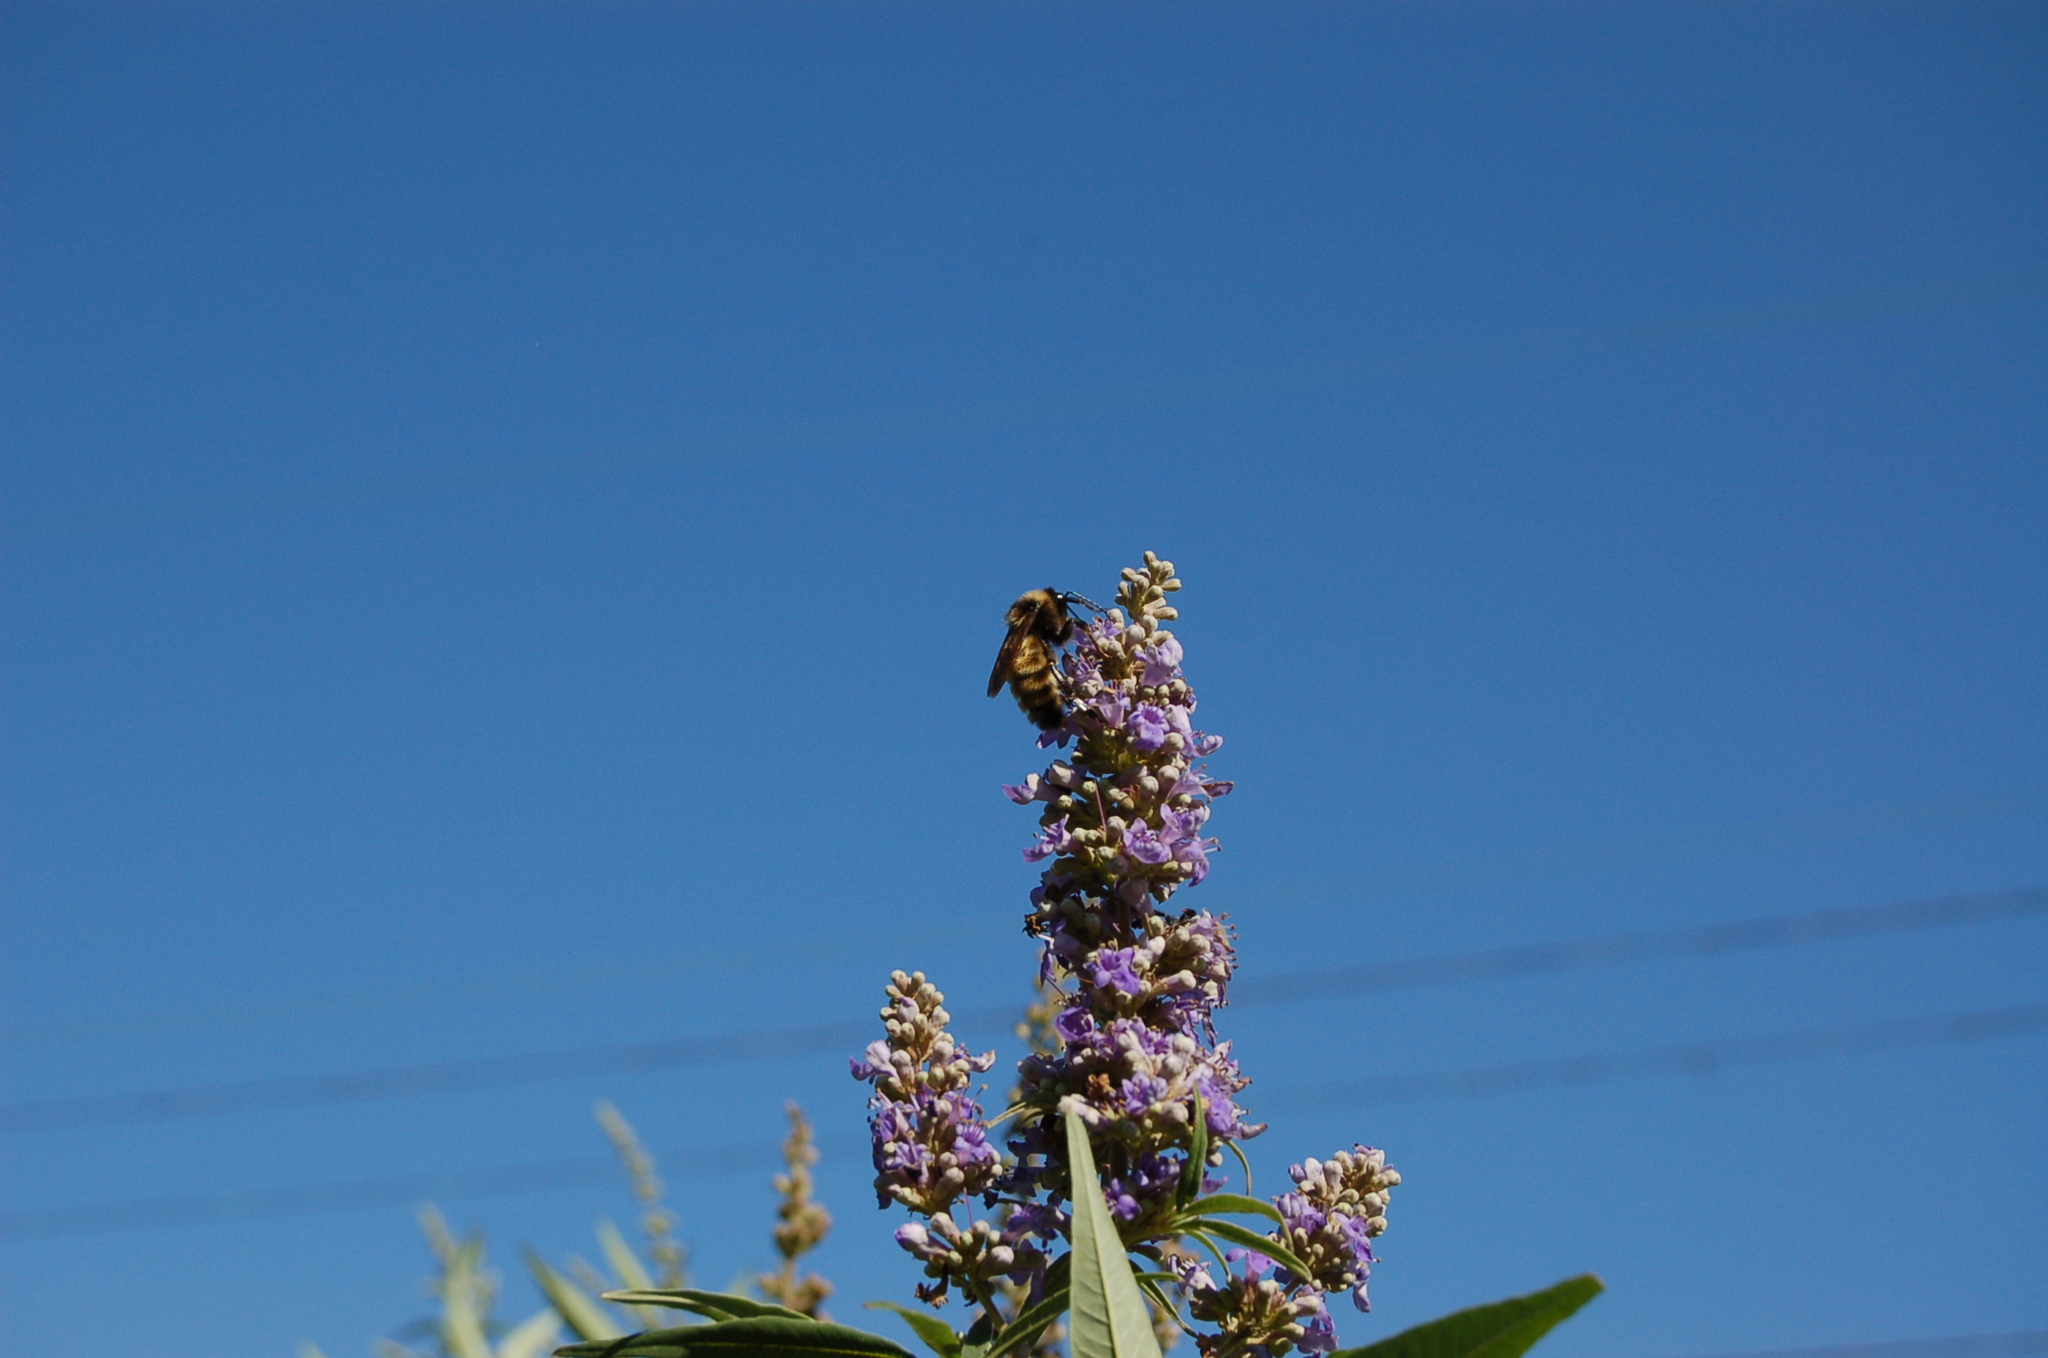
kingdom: Animalia
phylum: Arthropoda
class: Insecta
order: Hymenoptera
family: Apidae
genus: Bombus
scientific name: Bombus pensylvanicus
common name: Bumble bee
